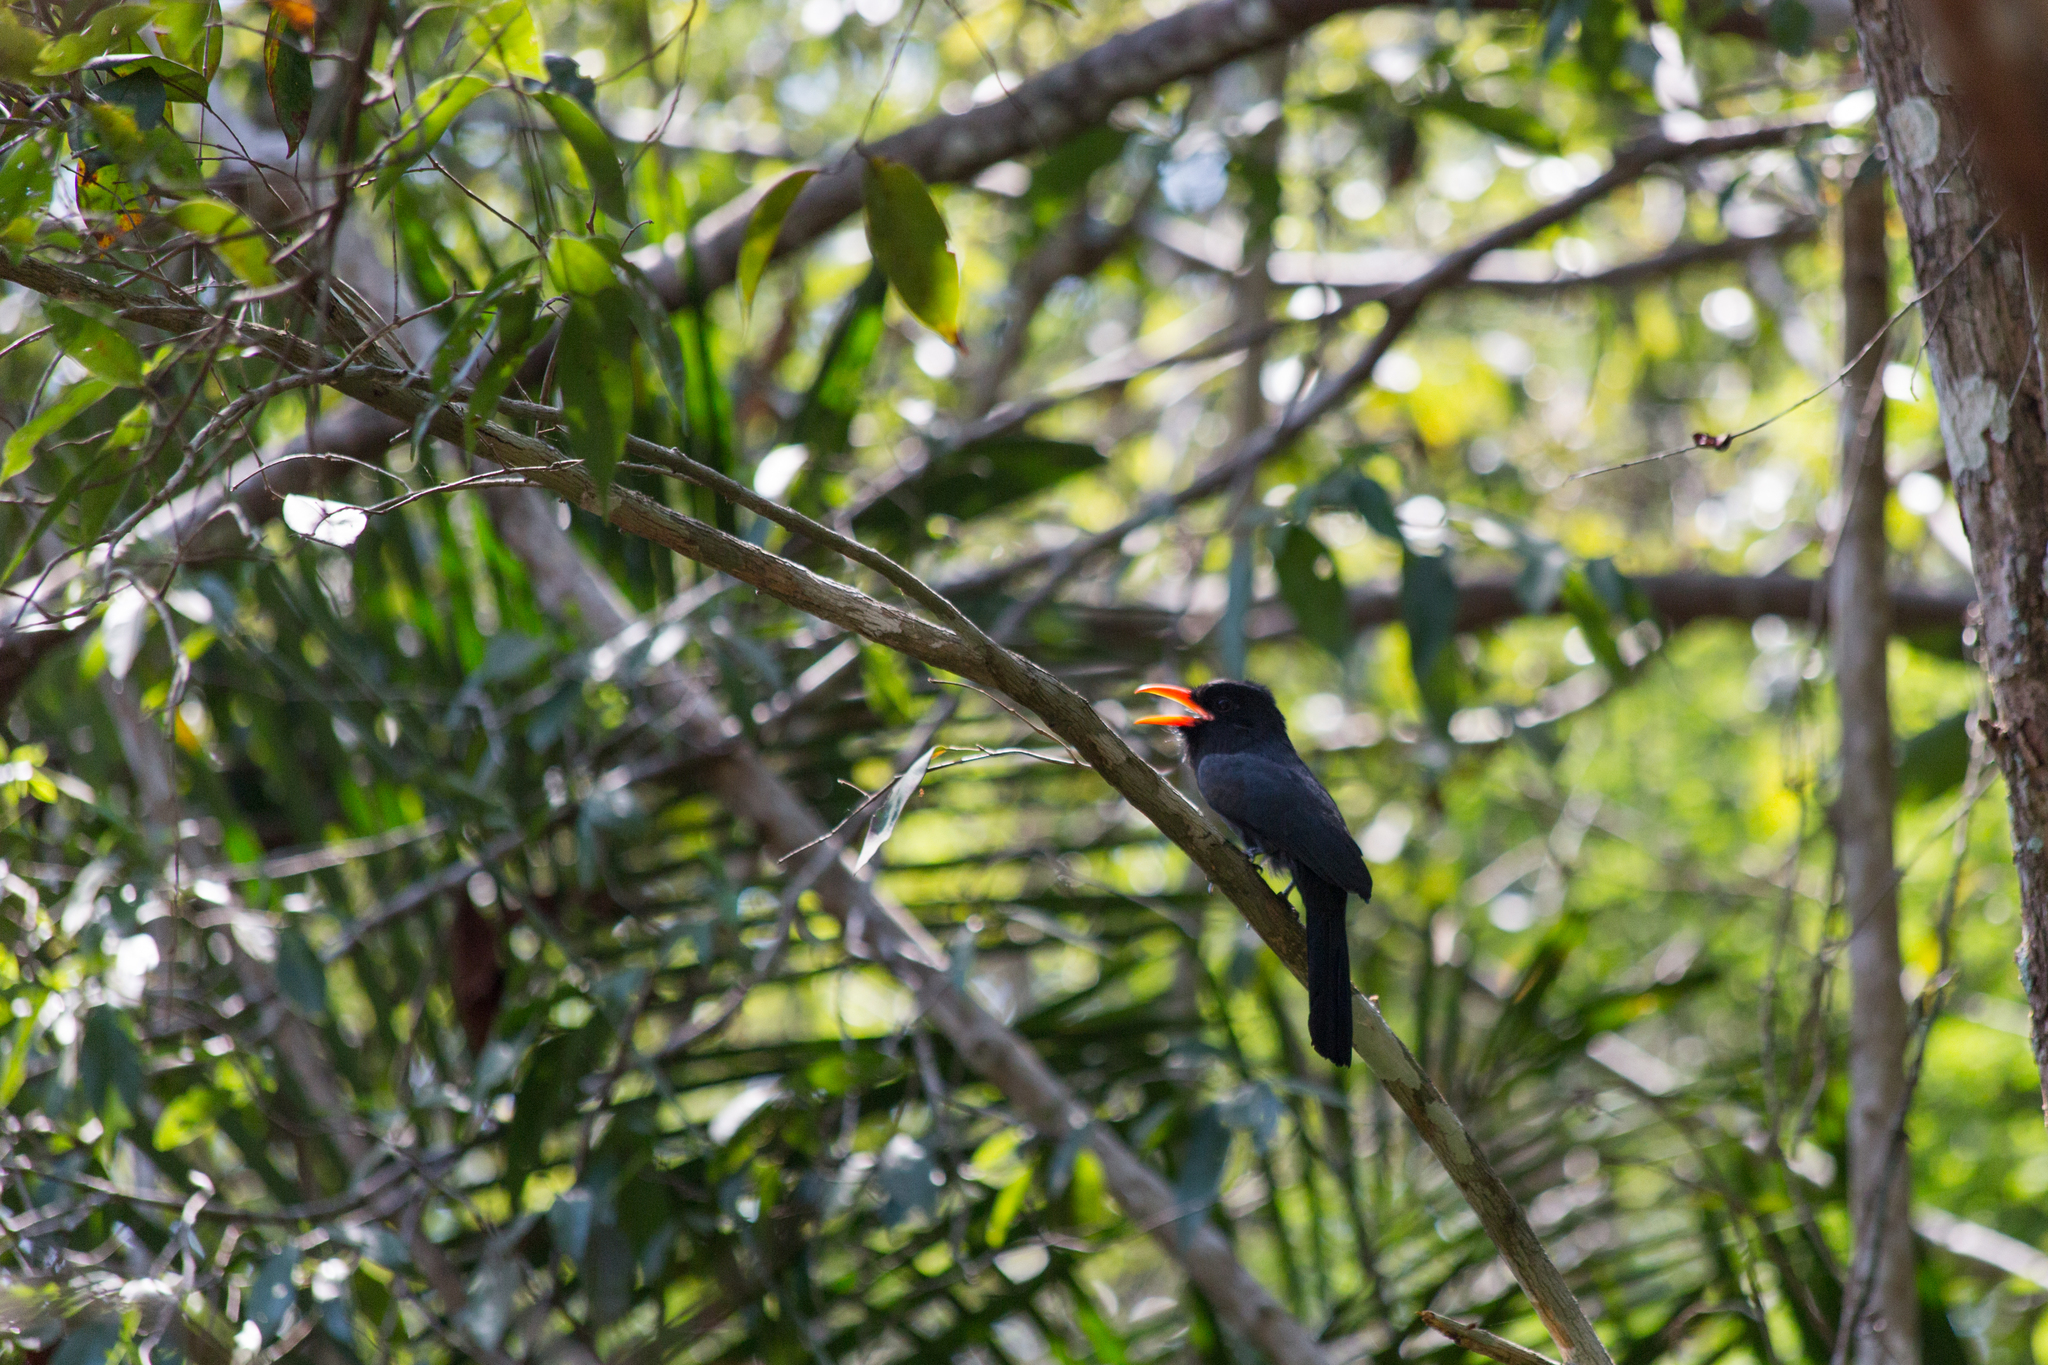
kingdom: Animalia
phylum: Chordata
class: Aves
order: Piciformes
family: Bucconidae
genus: Monasa
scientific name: Monasa nigrifrons
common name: Black-fronted nunbird
